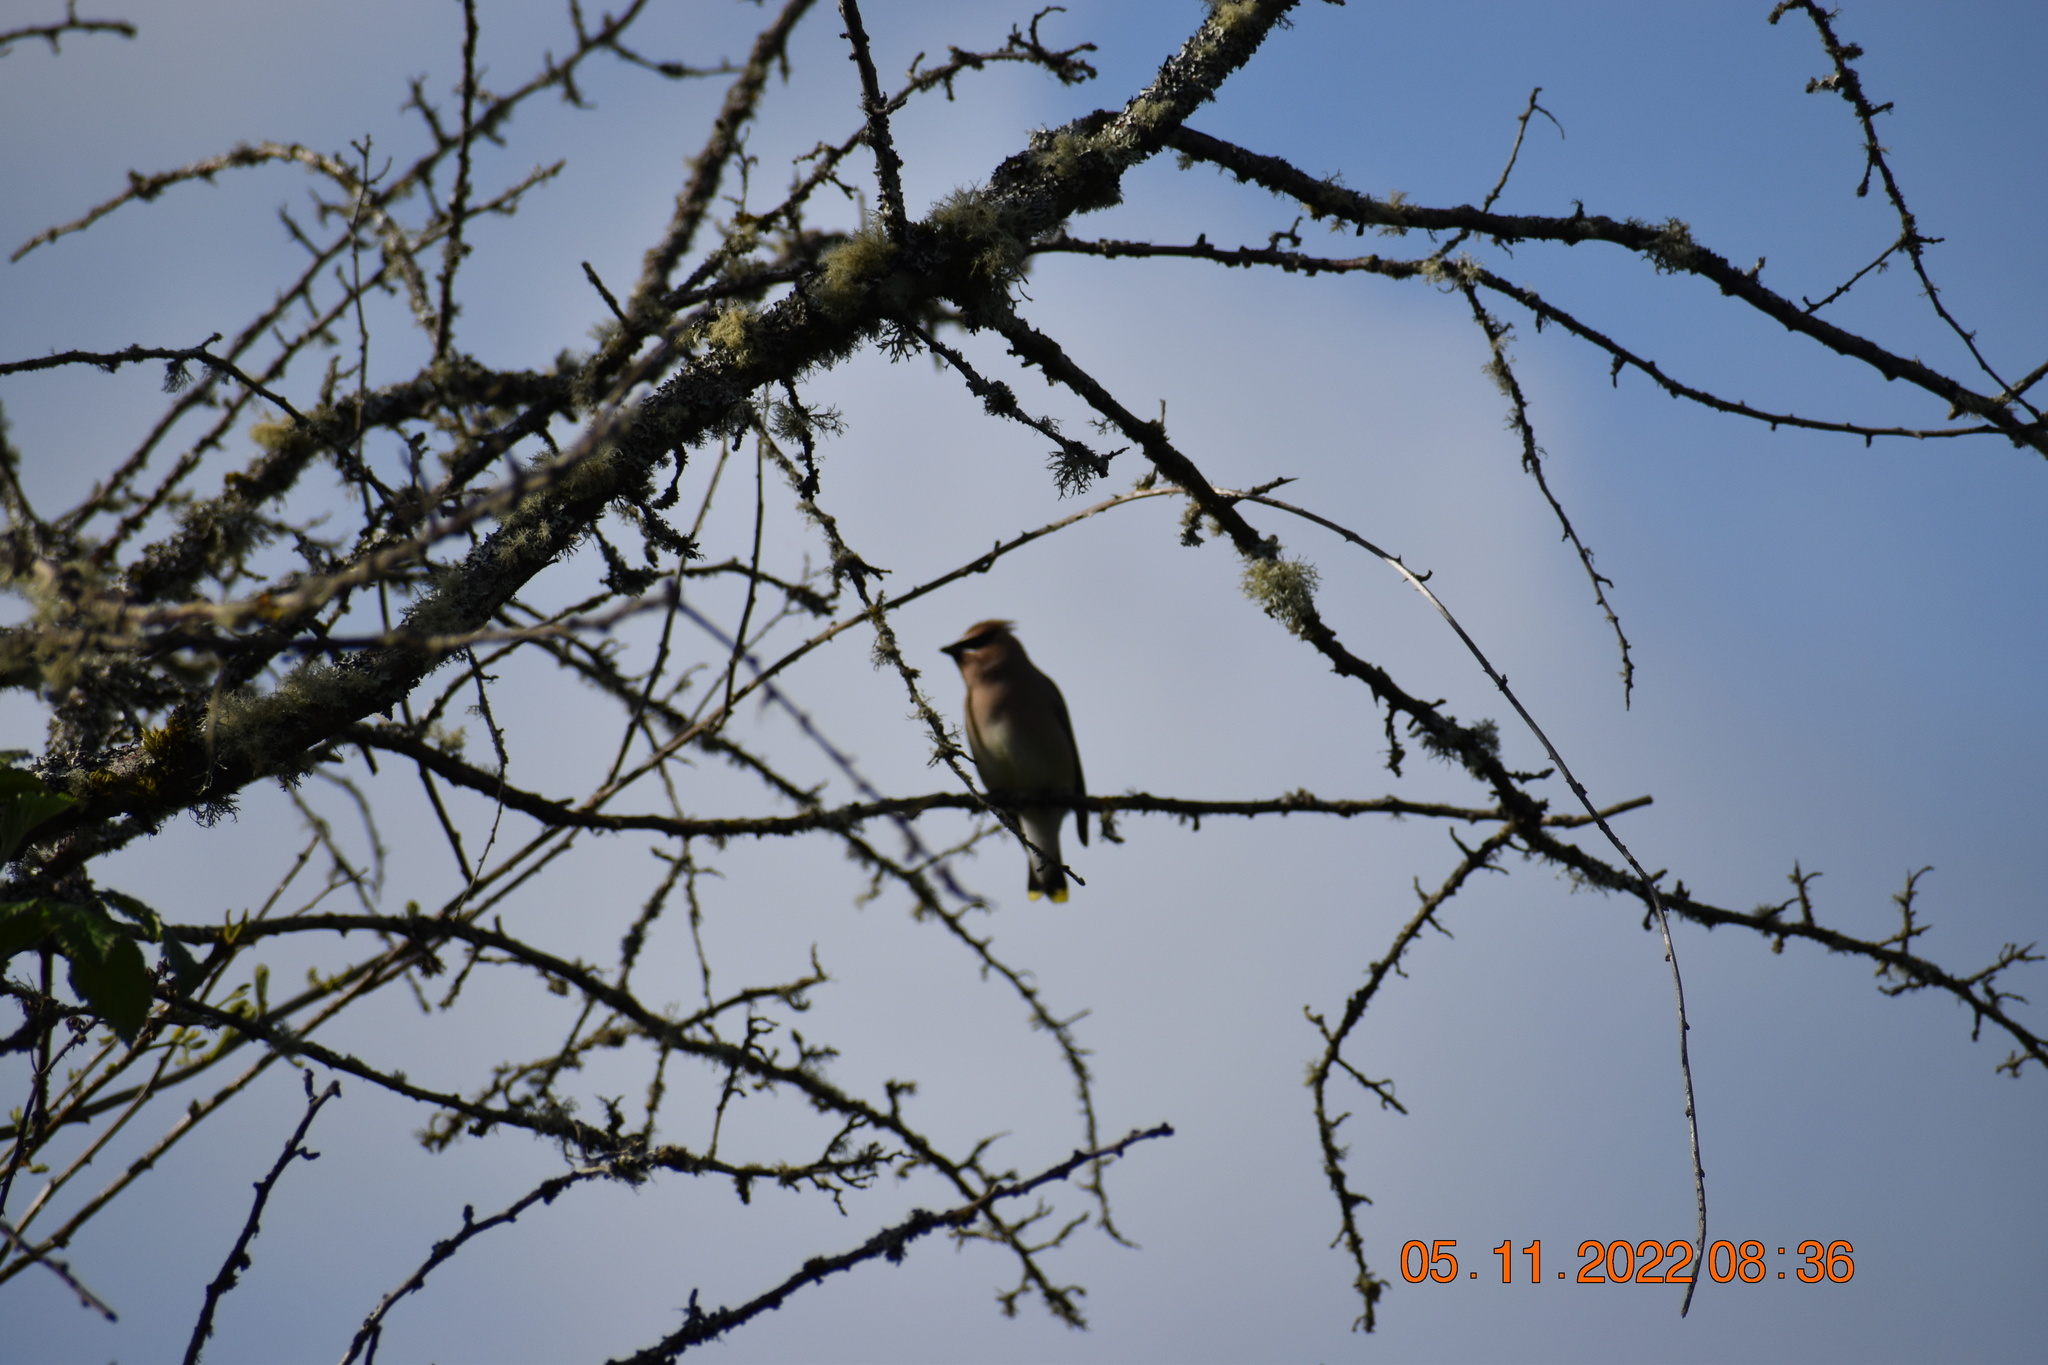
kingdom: Animalia
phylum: Chordata
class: Aves
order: Passeriformes
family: Bombycillidae
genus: Bombycilla
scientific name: Bombycilla cedrorum
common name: Cedar waxwing
